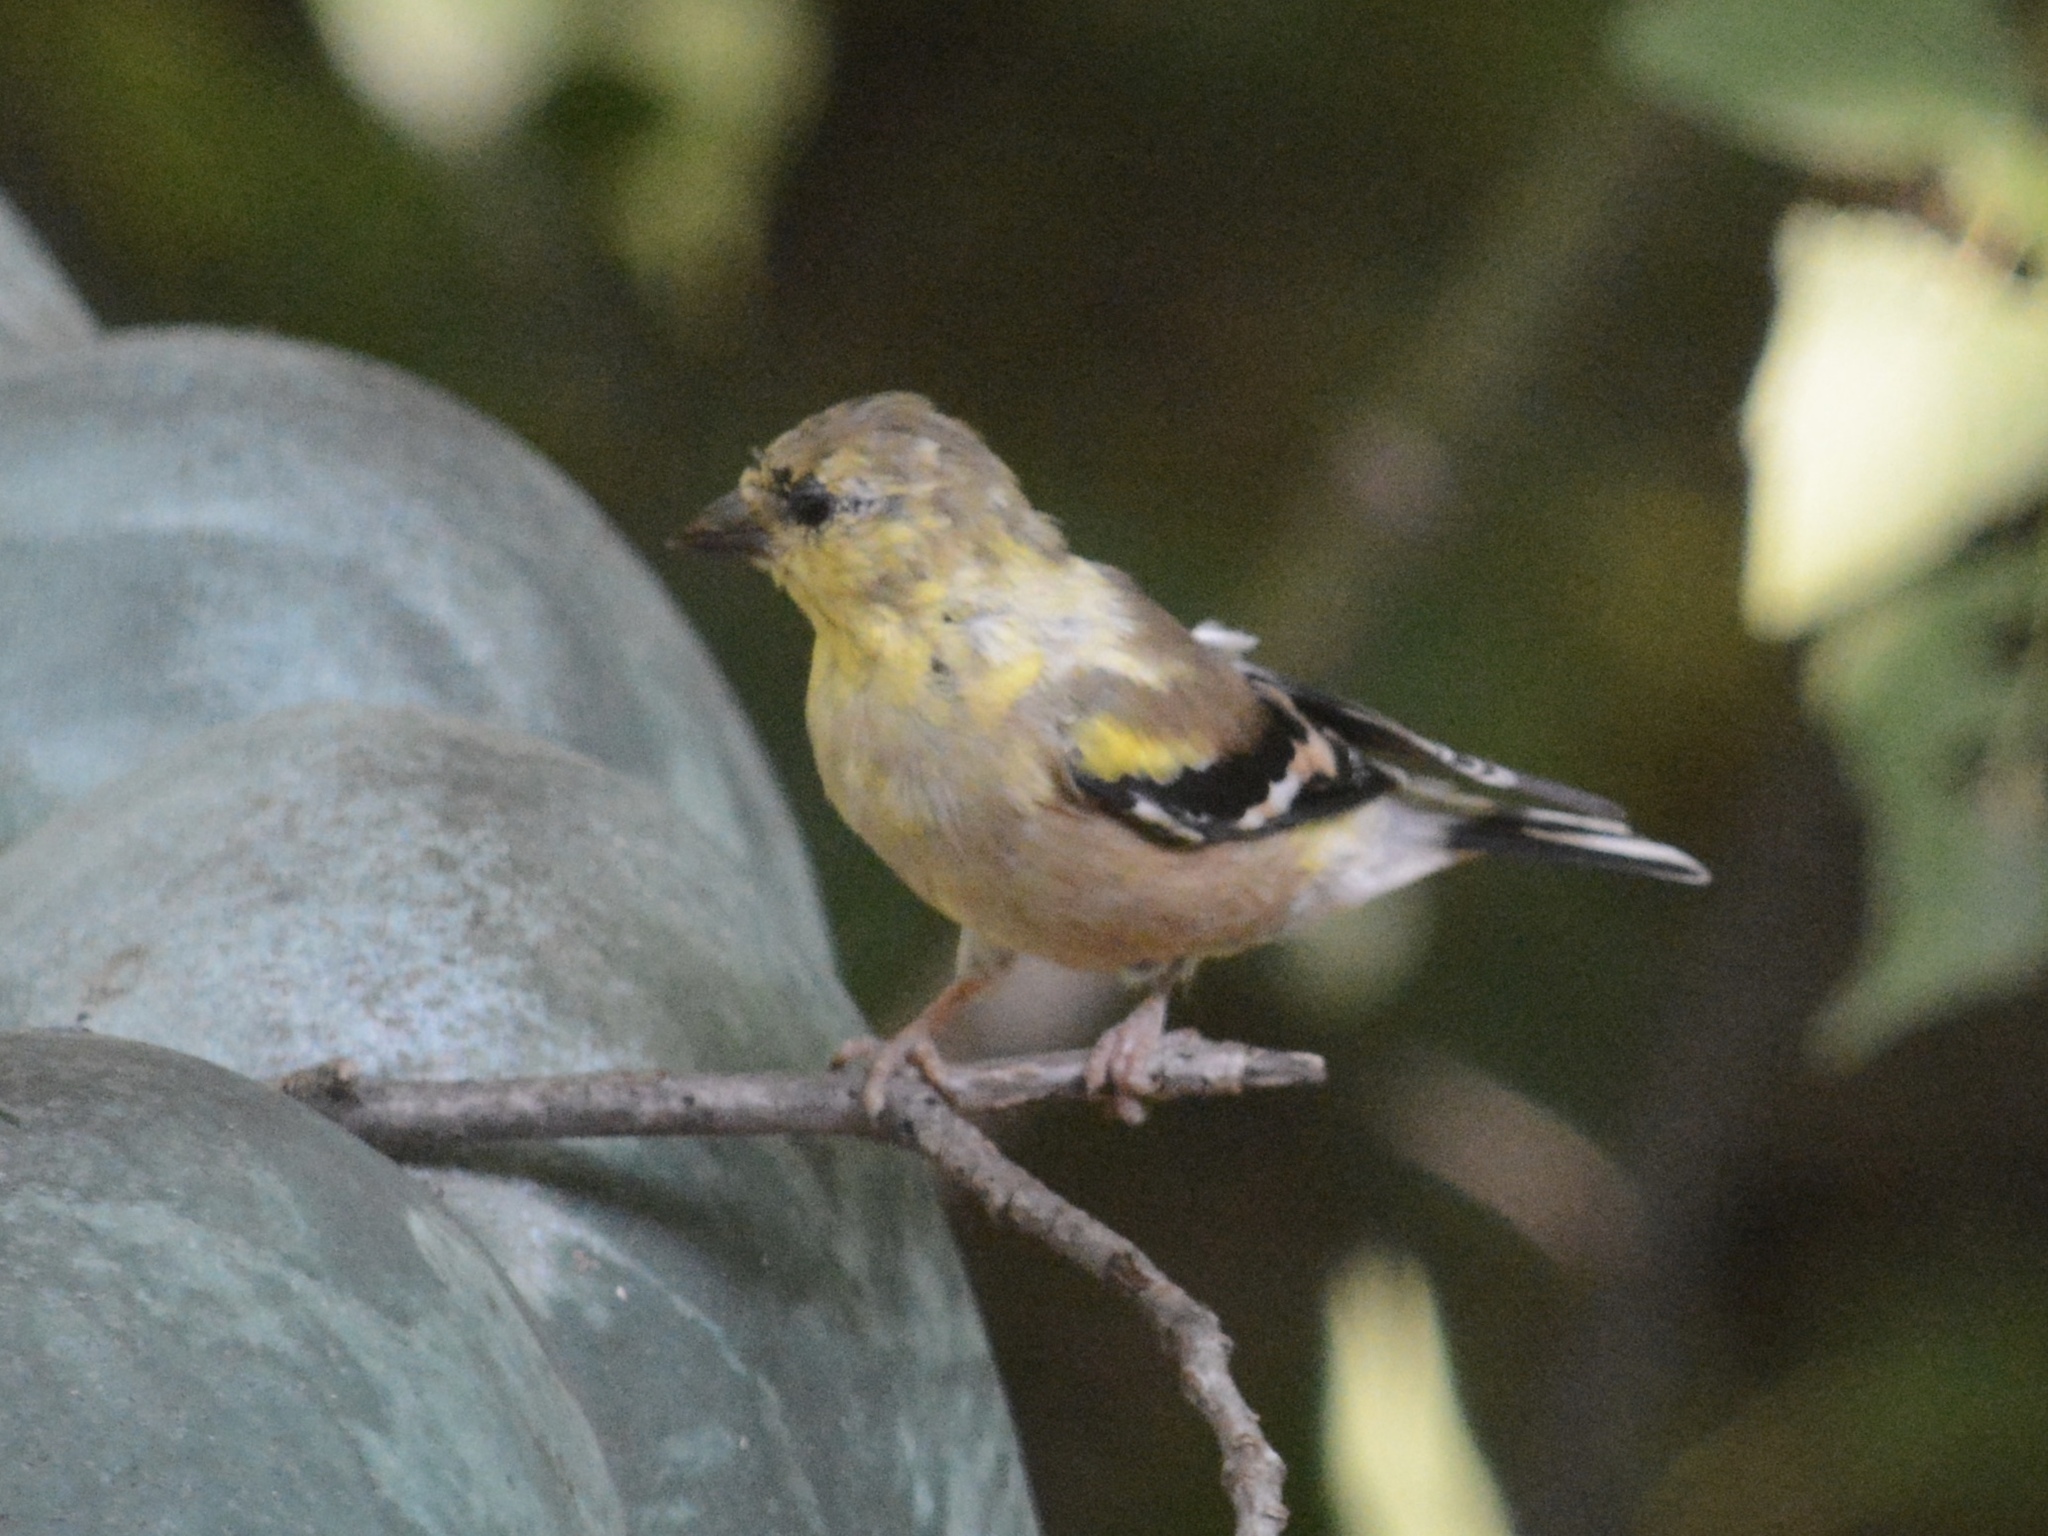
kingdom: Animalia
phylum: Chordata
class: Aves
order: Passeriformes
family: Fringillidae
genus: Spinus
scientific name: Spinus tristis
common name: American goldfinch
